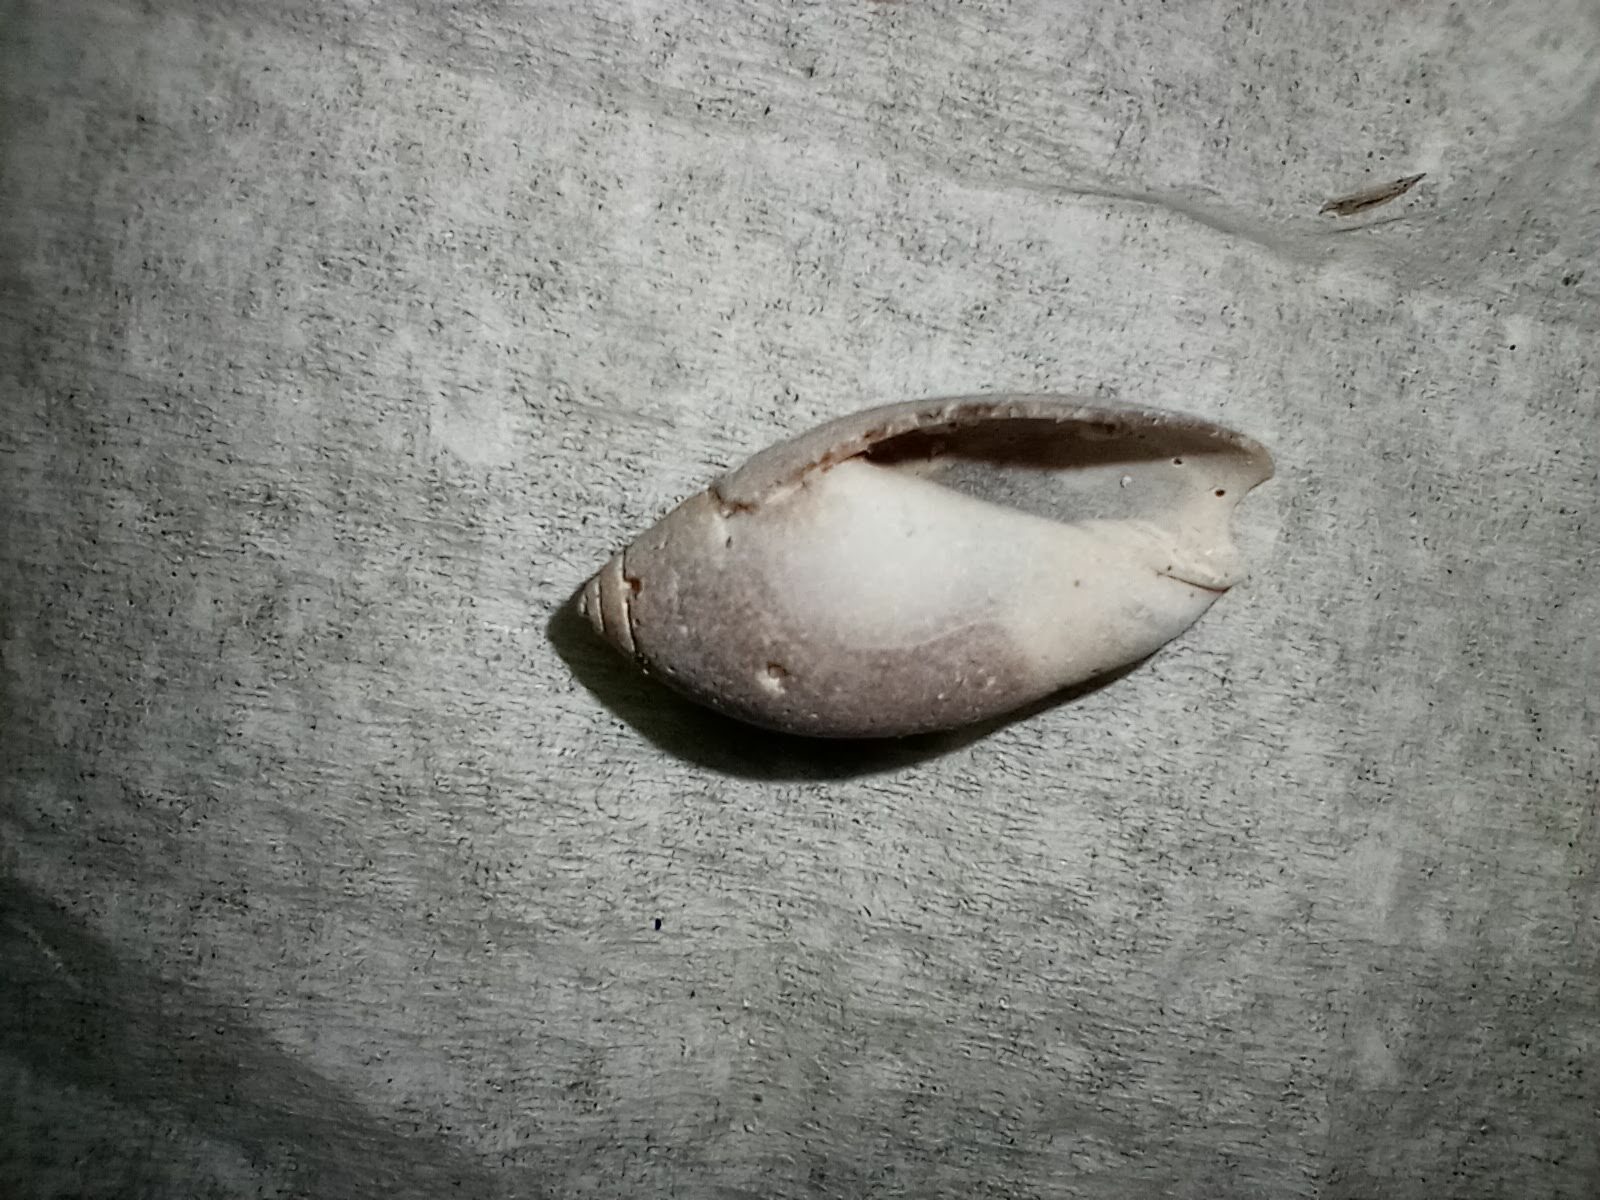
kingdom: Animalia
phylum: Mollusca
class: Gastropoda
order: Neogastropoda
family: Olividae
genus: Callianax
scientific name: Callianax biplicata
